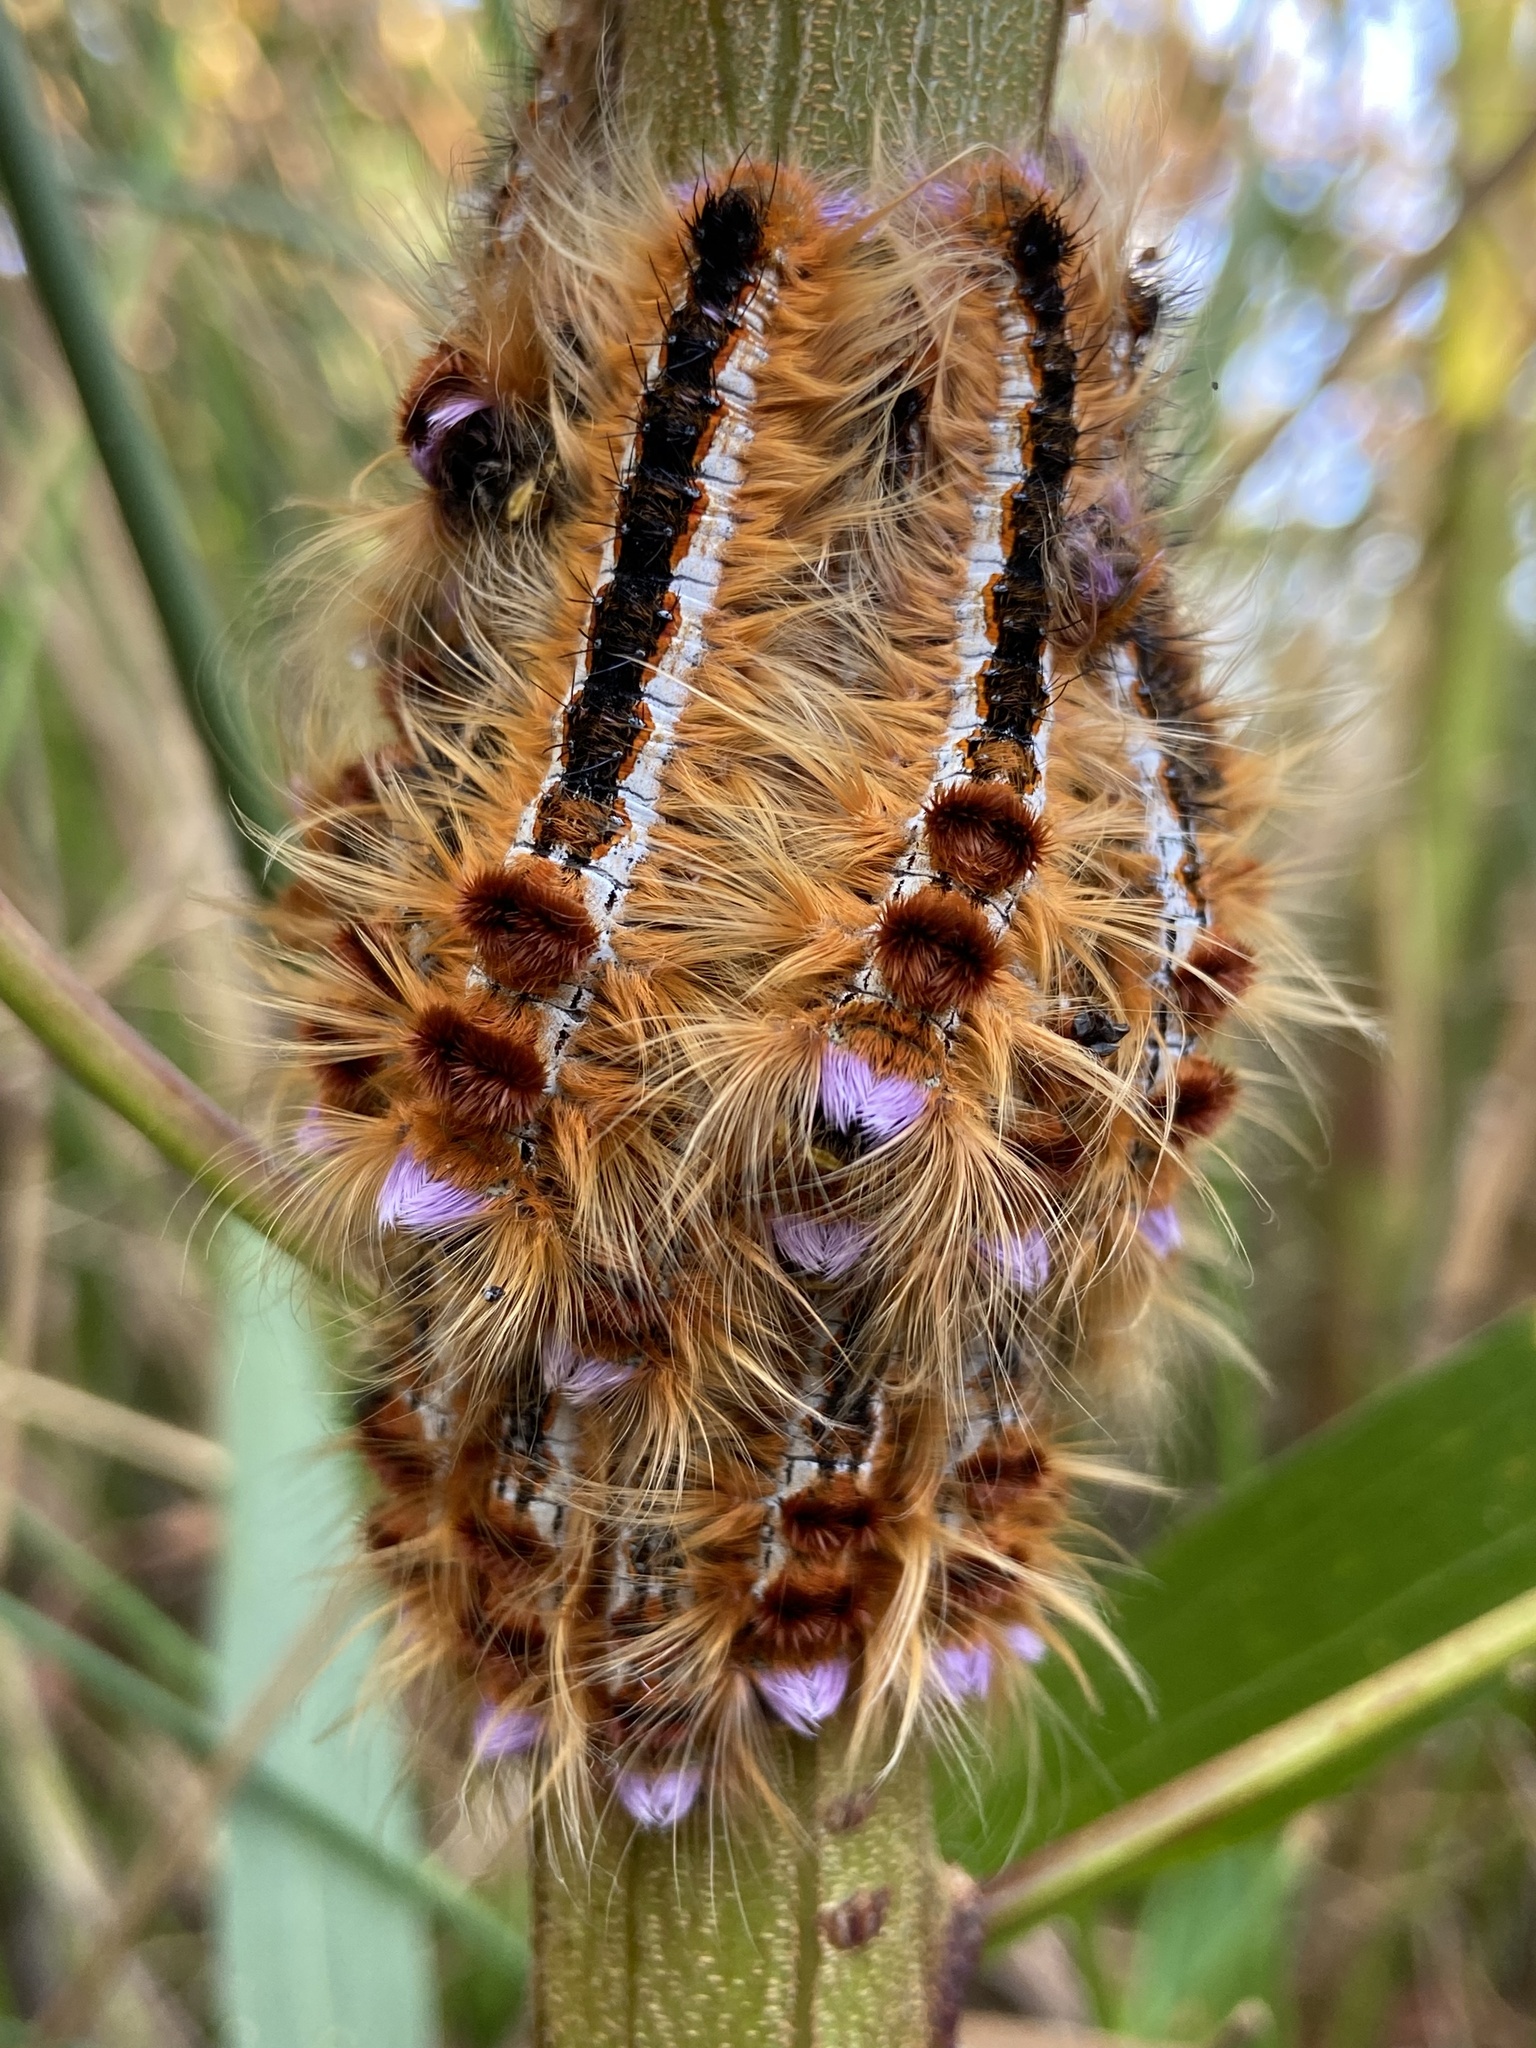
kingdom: Animalia
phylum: Arthropoda
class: Insecta
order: Lepidoptera
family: Lasiocampidae
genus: Eutricha
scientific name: Eutricha capensis
